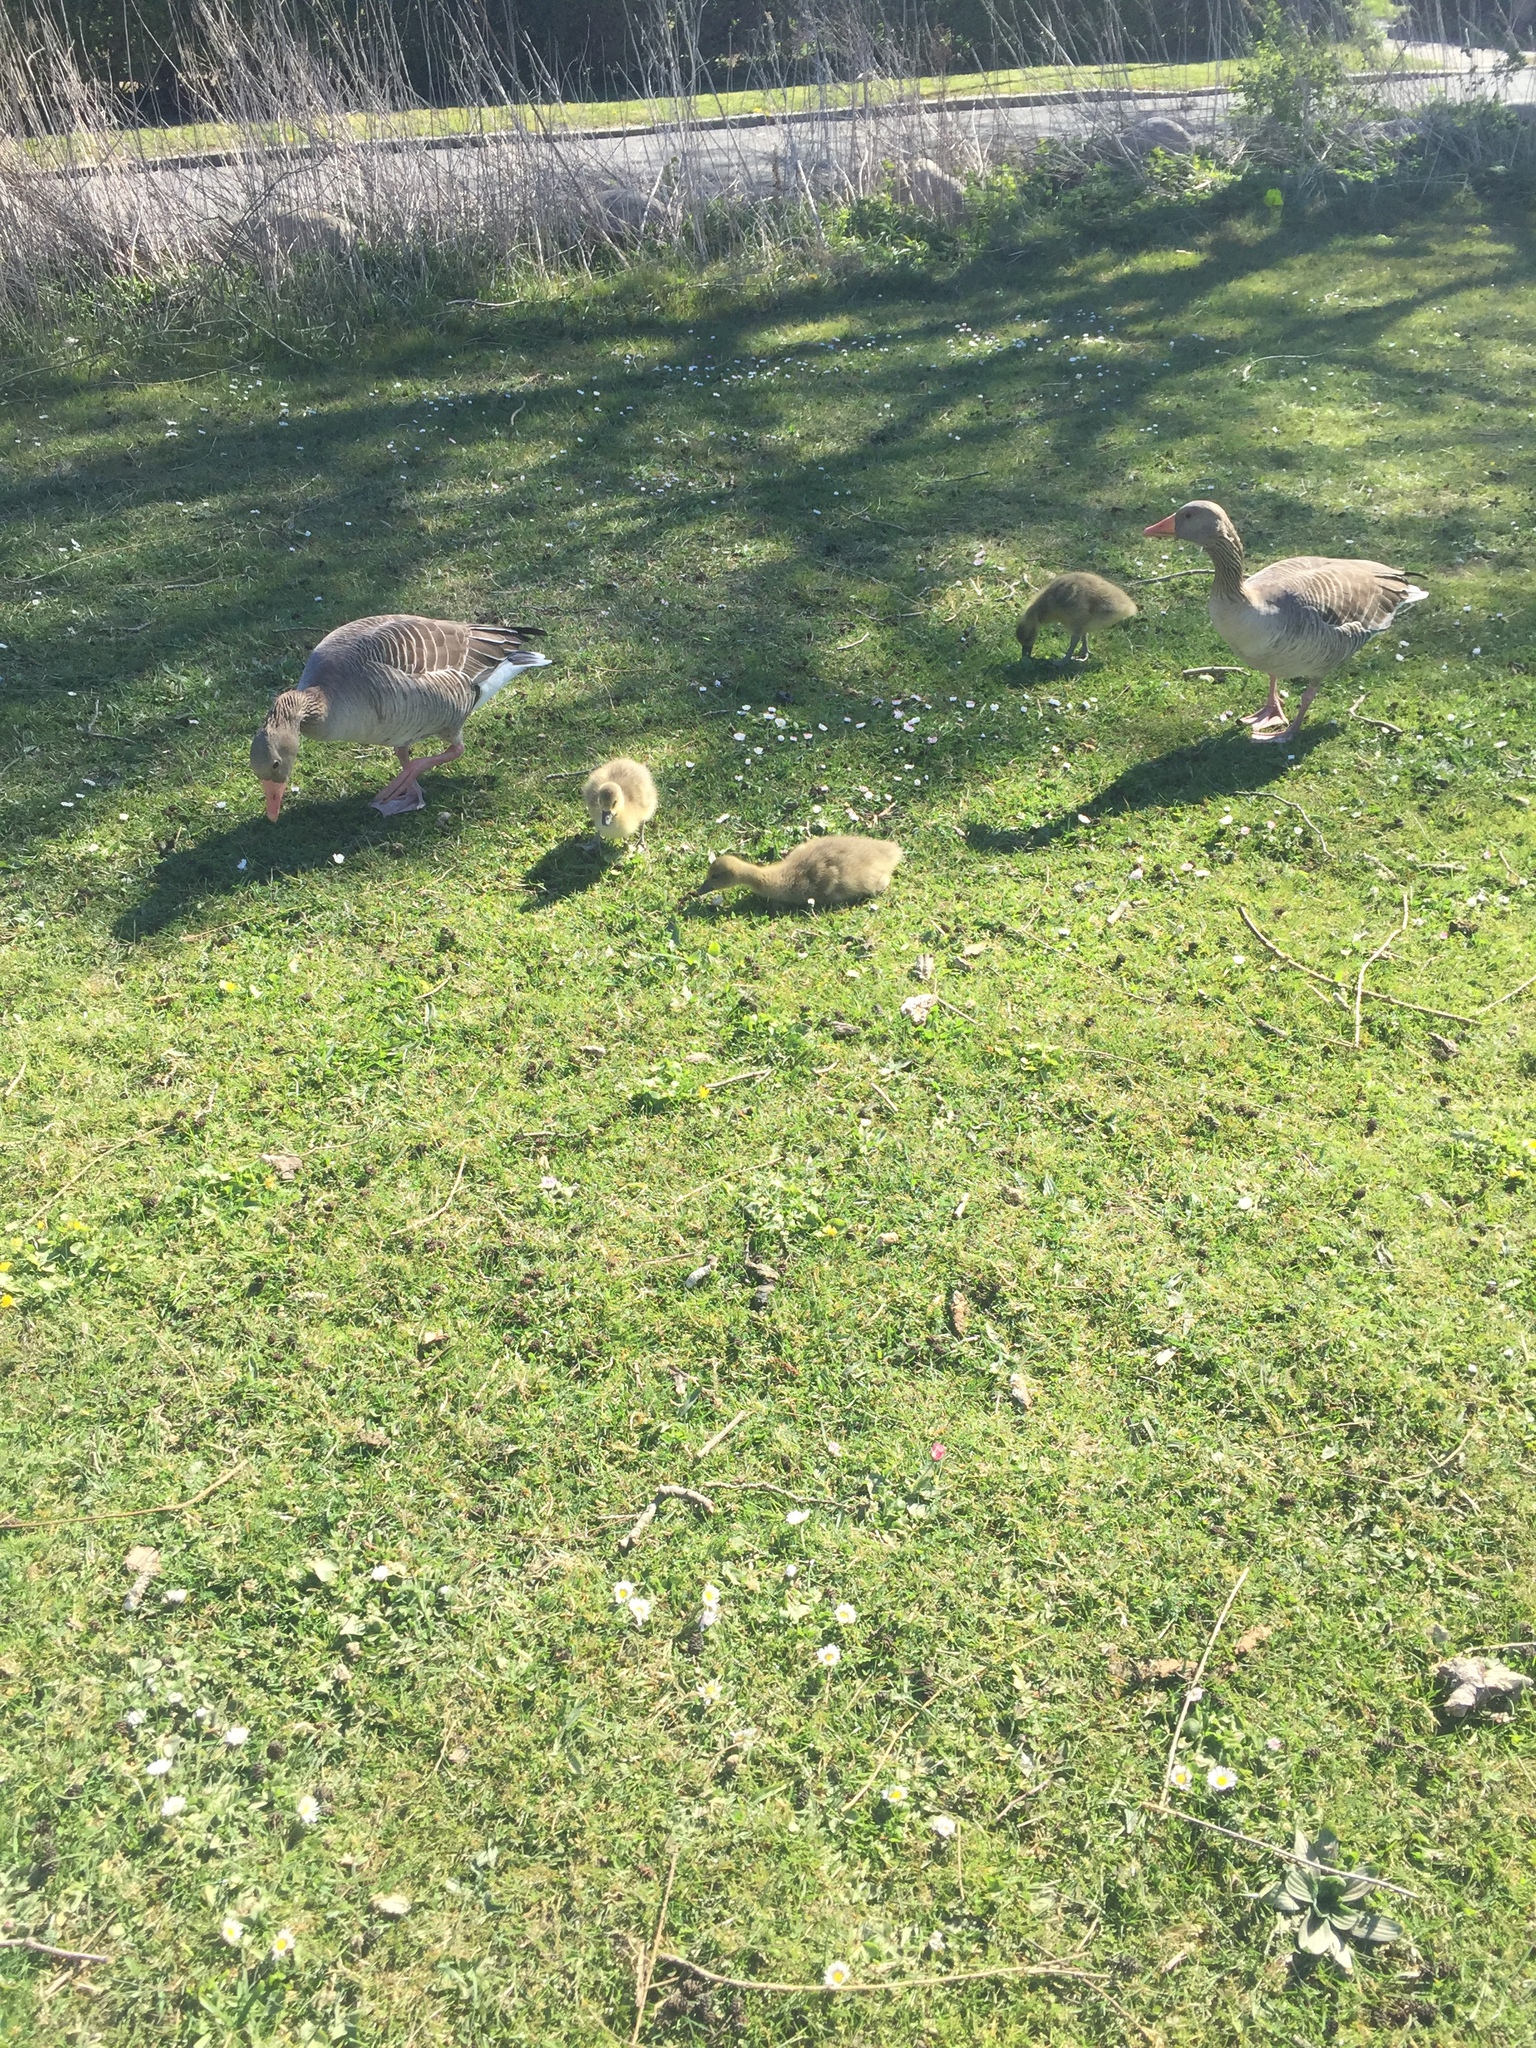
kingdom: Animalia
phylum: Chordata
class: Aves
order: Anseriformes
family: Anatidae
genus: Anser
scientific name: Anser anser
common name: Greylag goose
